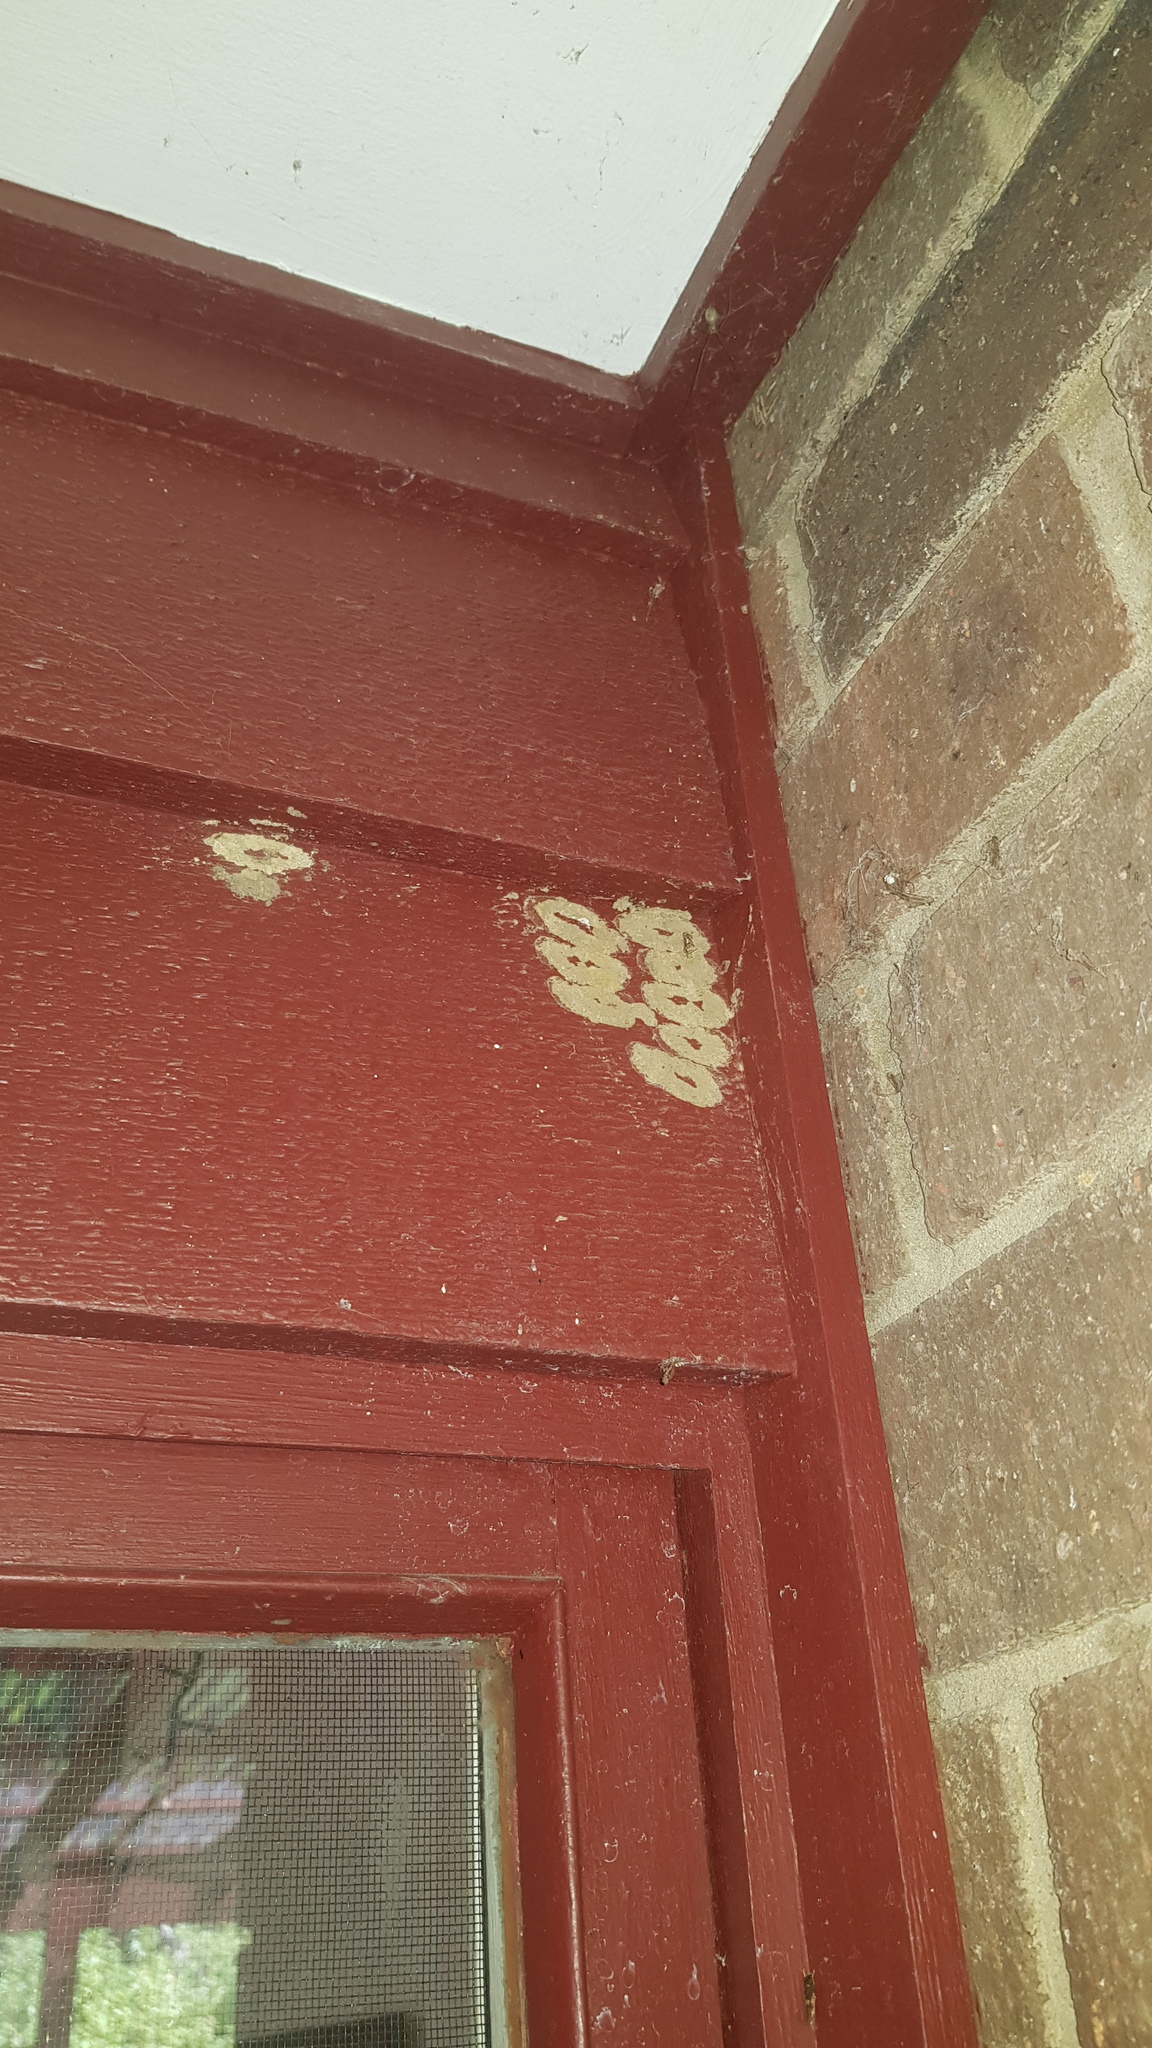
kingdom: Animalia
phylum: Arthropoda
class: Insecta
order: Hymenoptera
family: Sphecidae
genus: Sceliphron
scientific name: Sceliphron formosum
